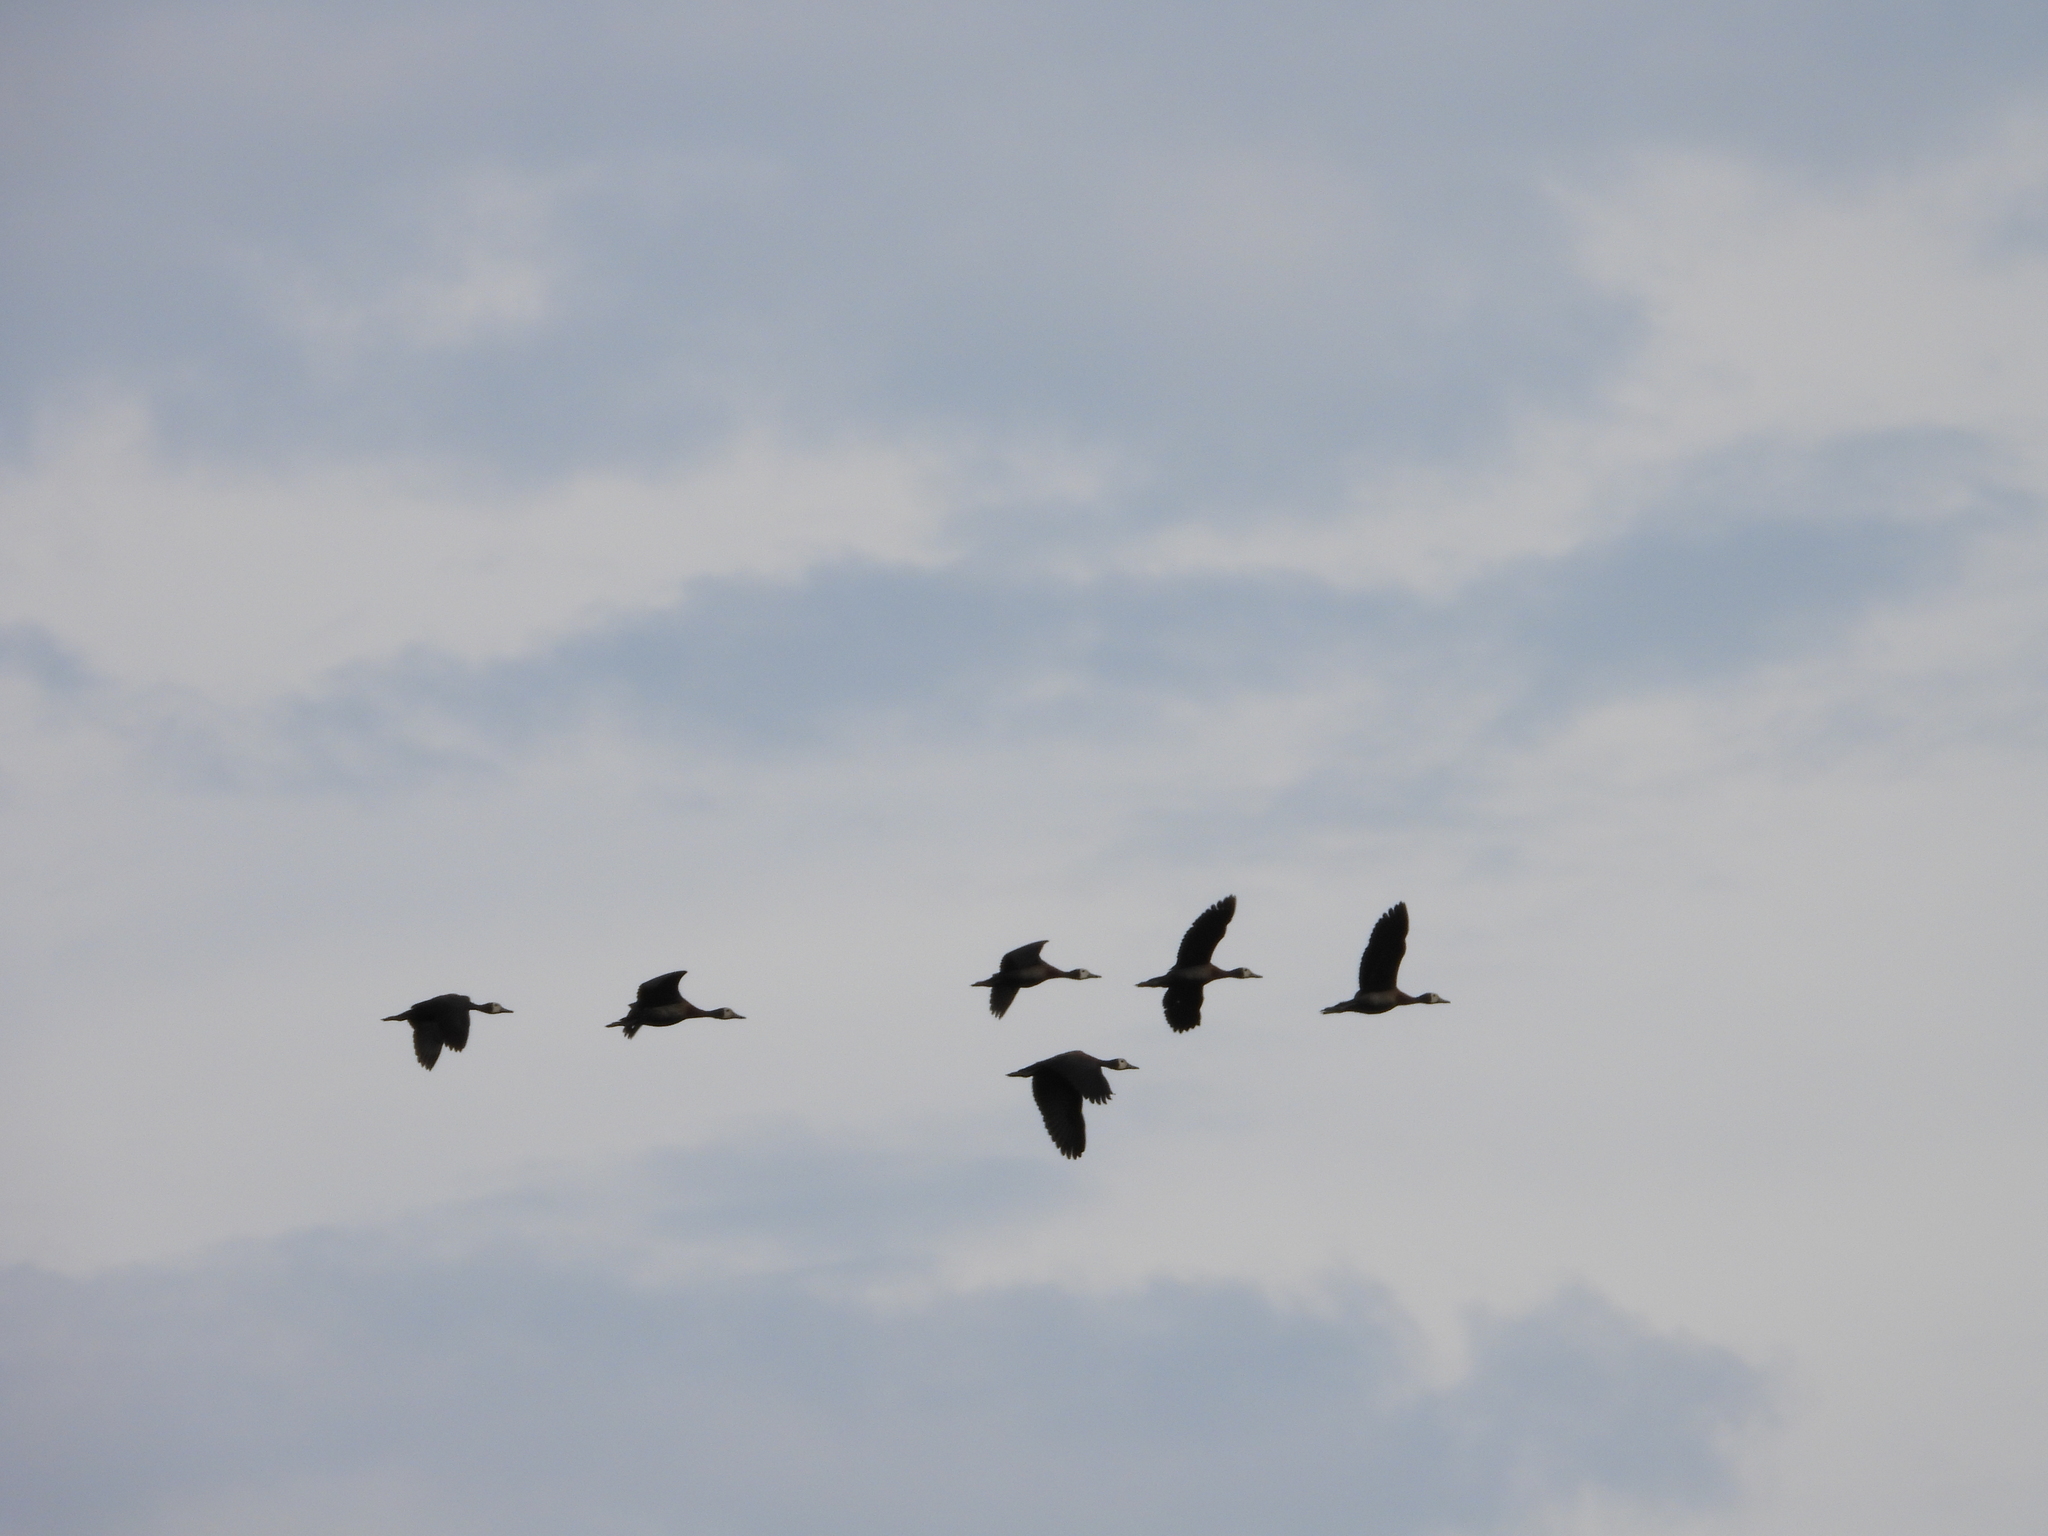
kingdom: Animalia
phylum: Chordata
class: Aves
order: Anseriformes
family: Anatidae
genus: Dendrocygna
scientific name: Dendrocygna viduata
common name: White-faced whistling duck
